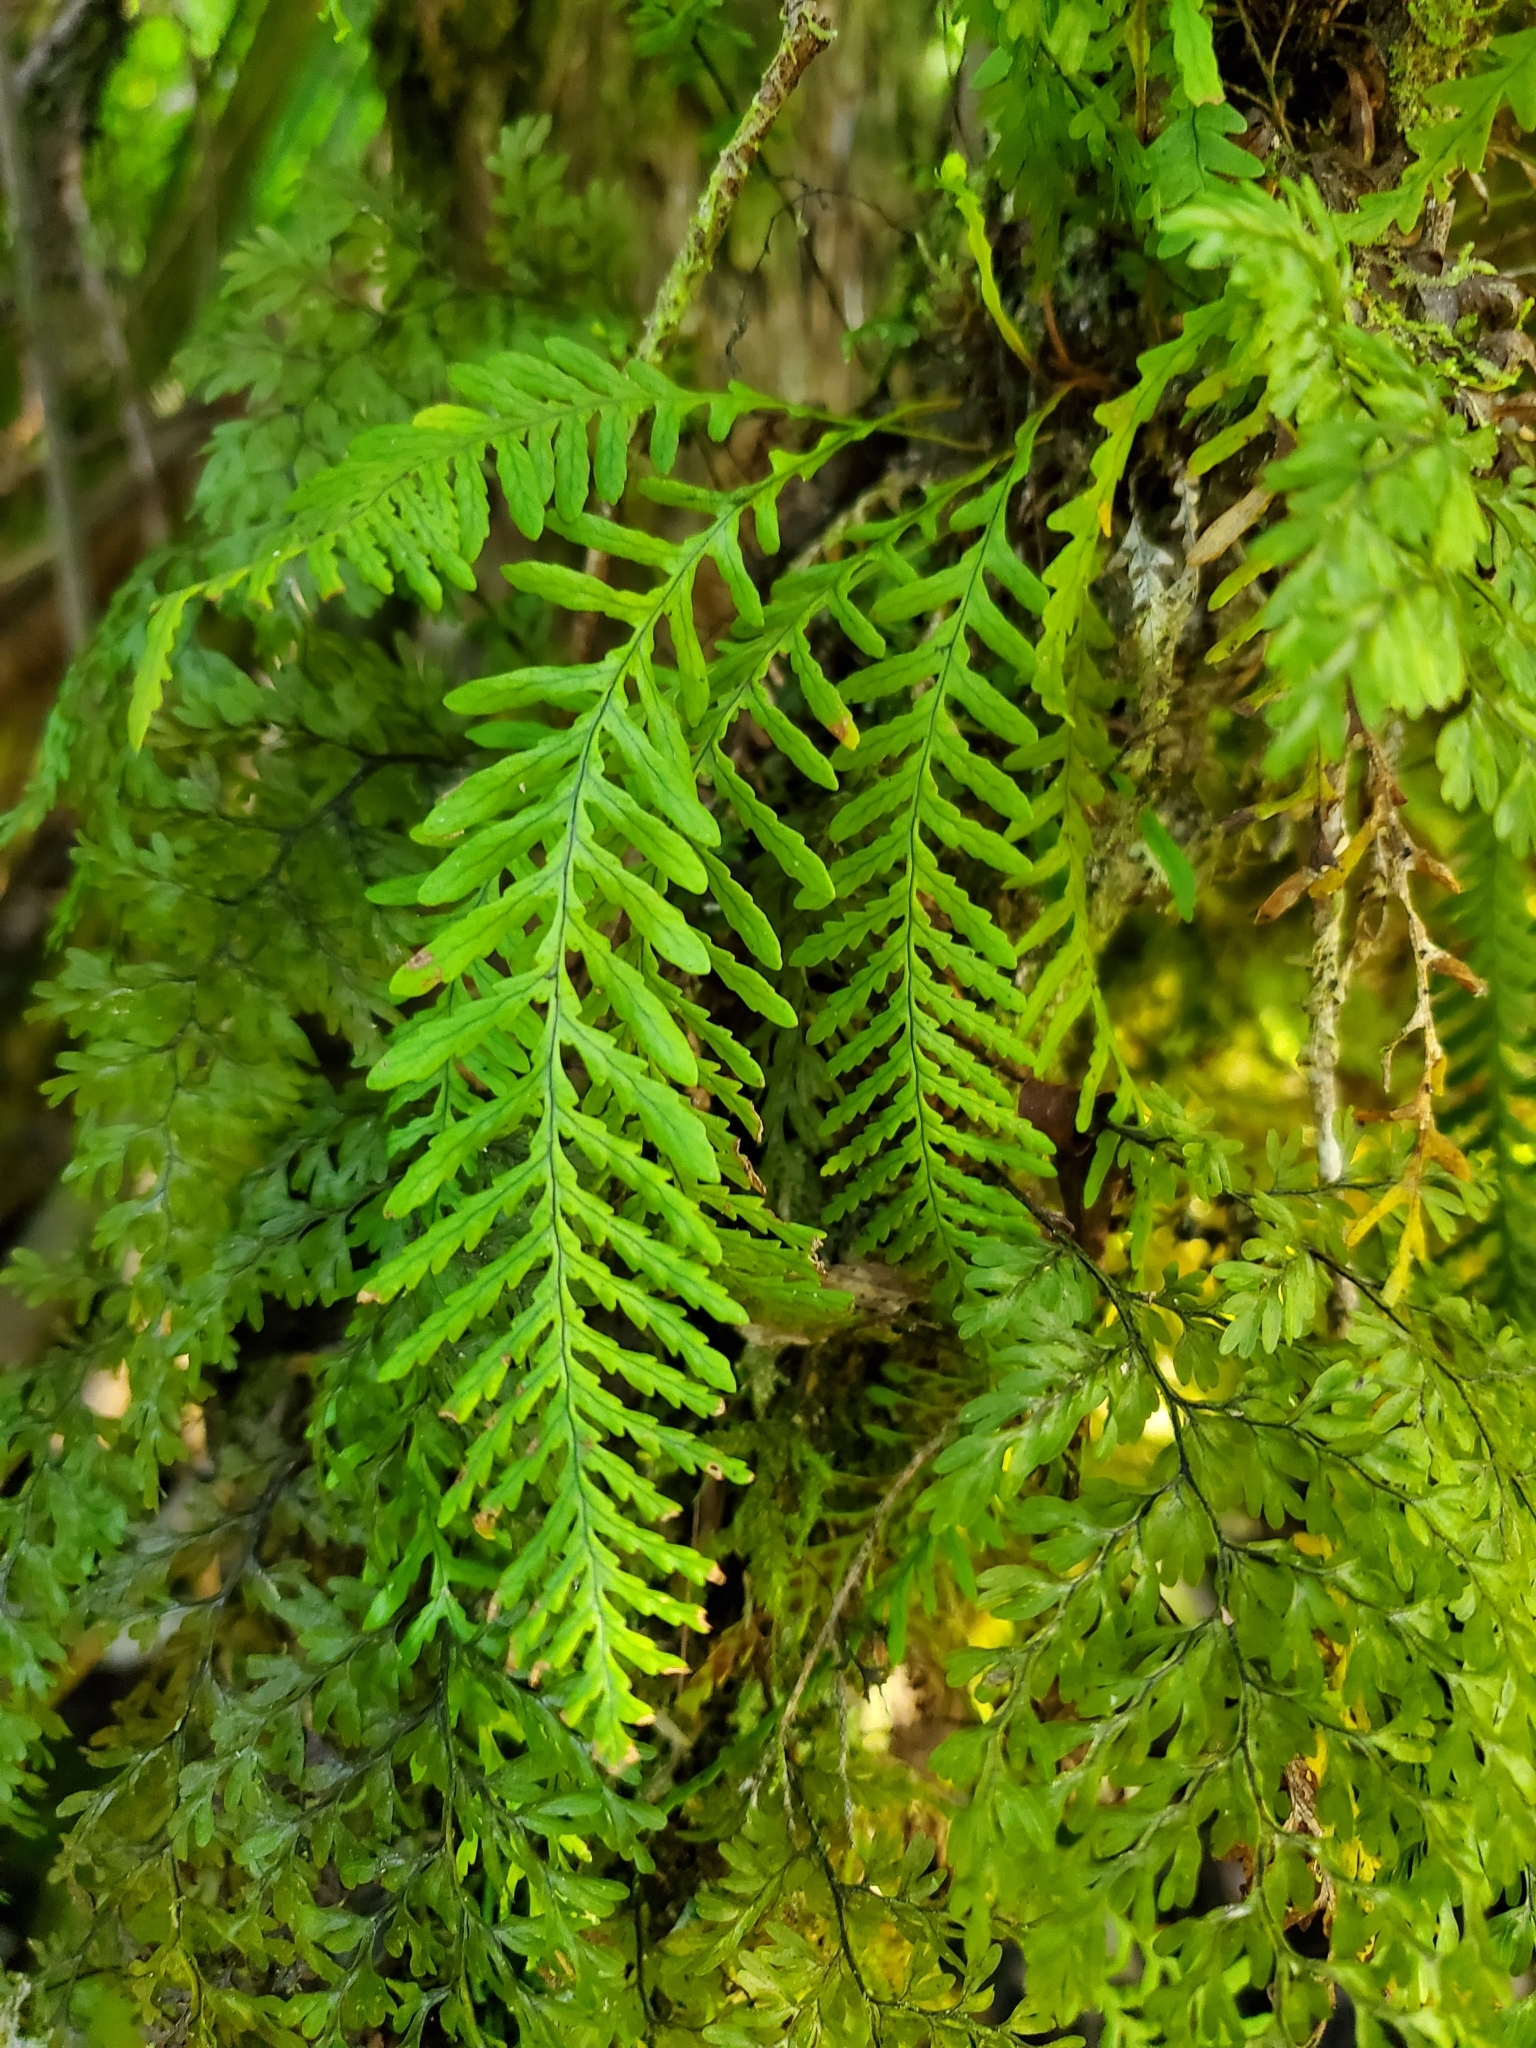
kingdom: Plantae
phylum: Tracheophyta
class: Polypodiopsida
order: Polypodiales
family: Polypodiaceae
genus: Notogrammitis
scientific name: Notogrammitis heterophylla
